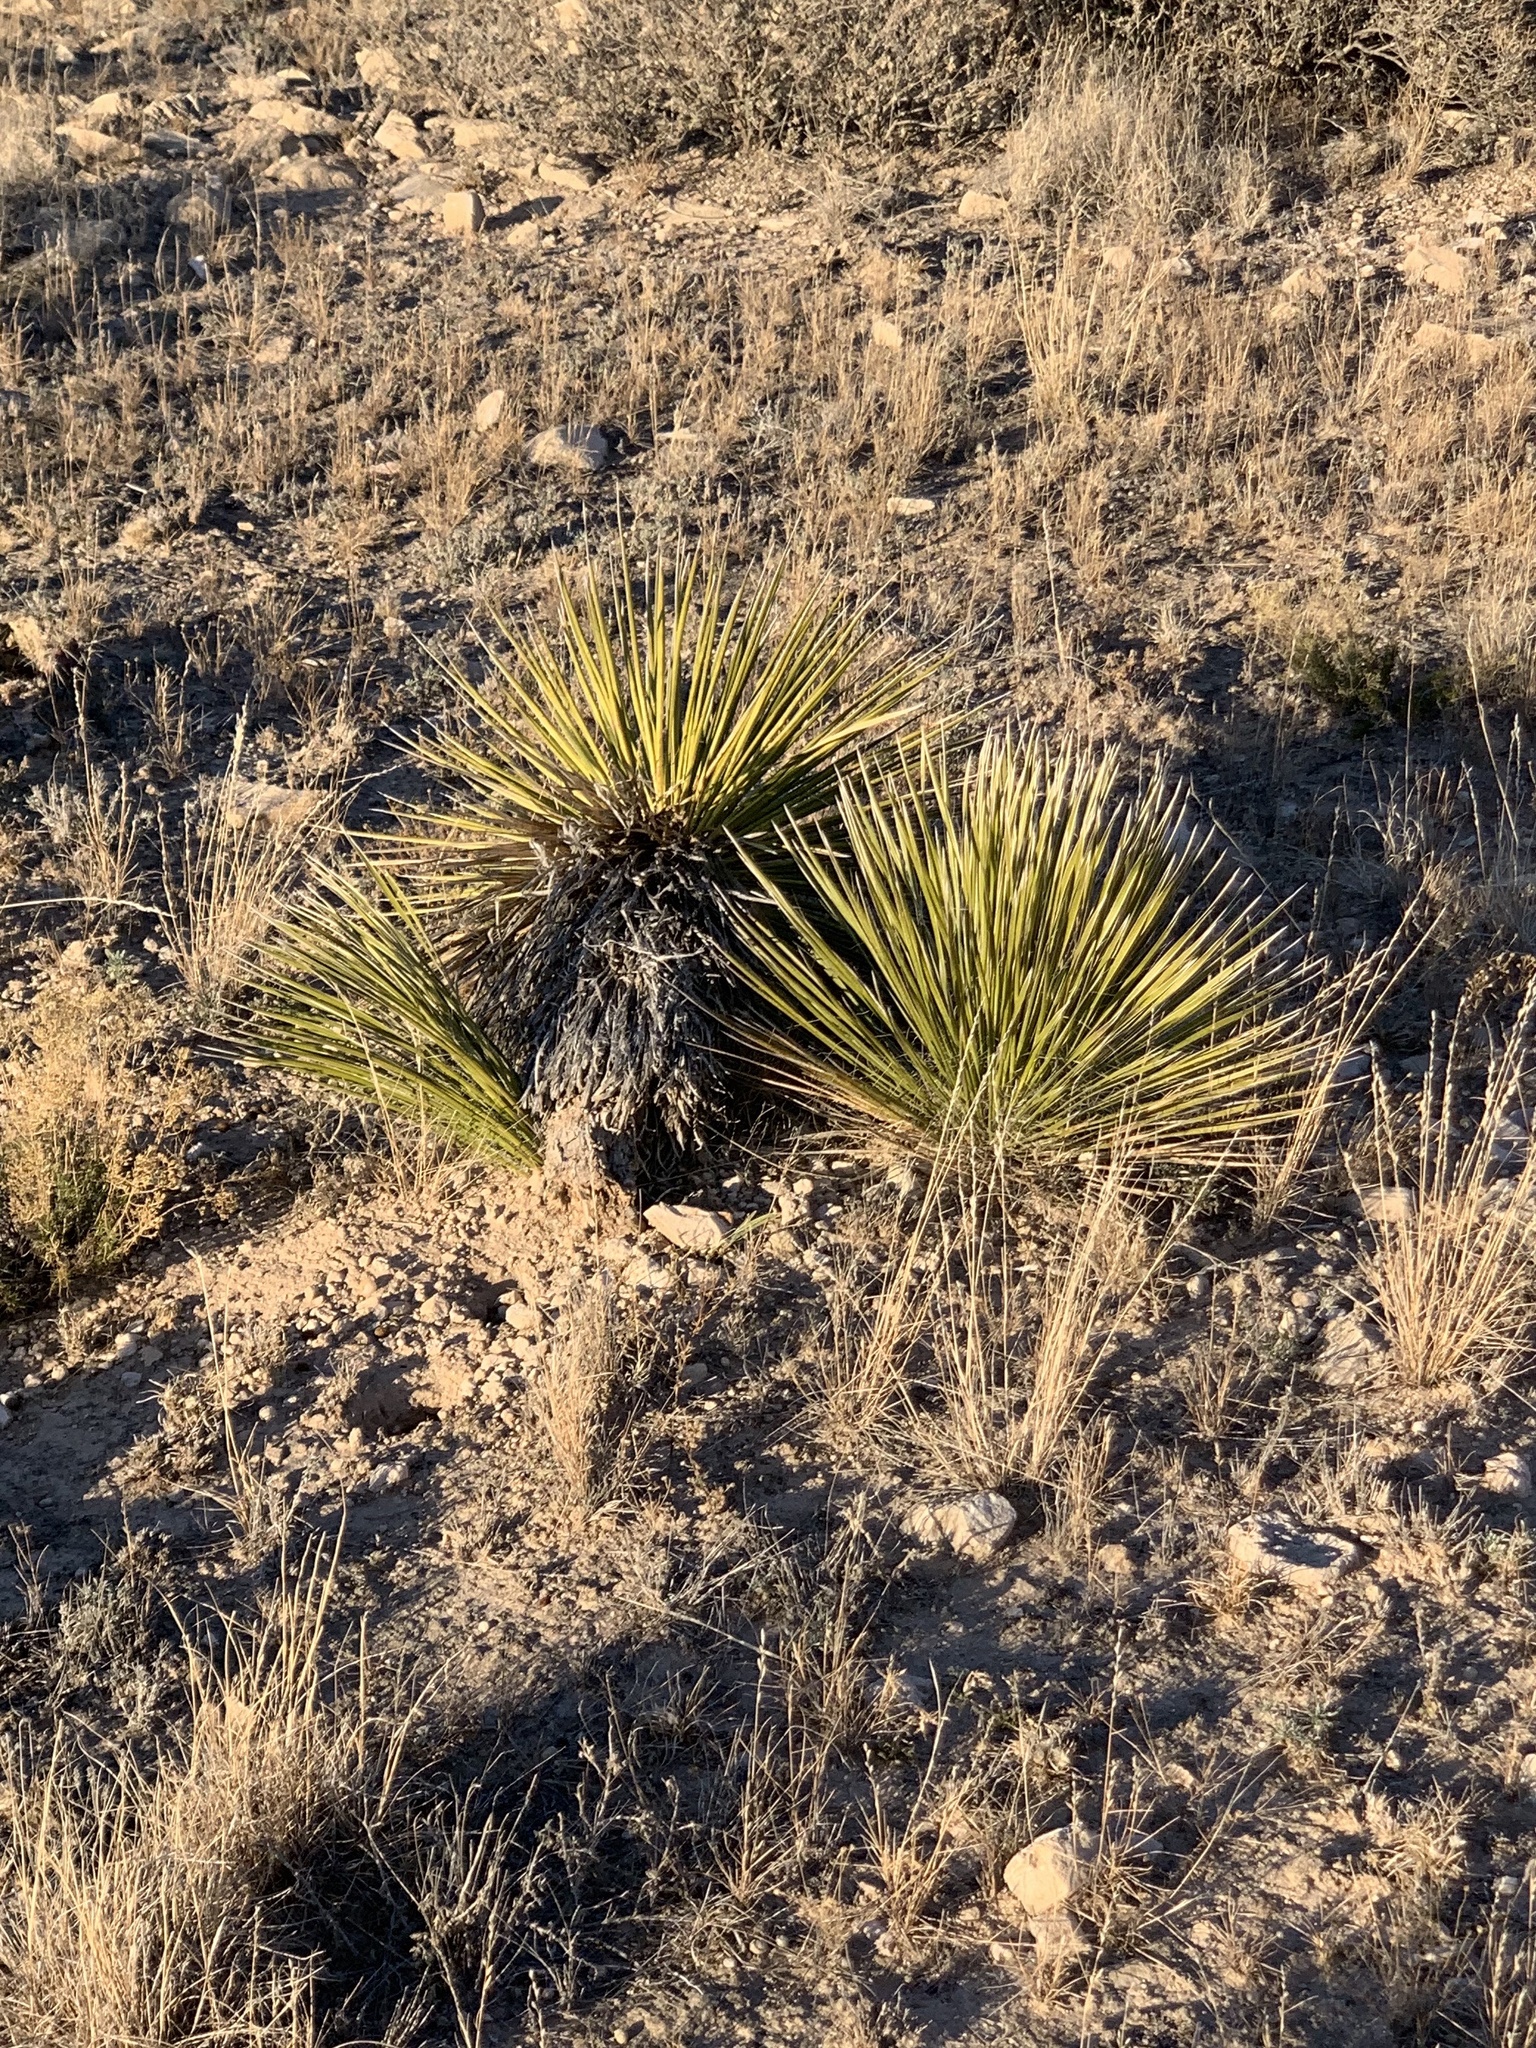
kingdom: Plantae
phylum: Tracheophyta
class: Liliopsida
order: Asparagales
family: Asparagaceae
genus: Yucca
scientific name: Yucca elata
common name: Palmella
